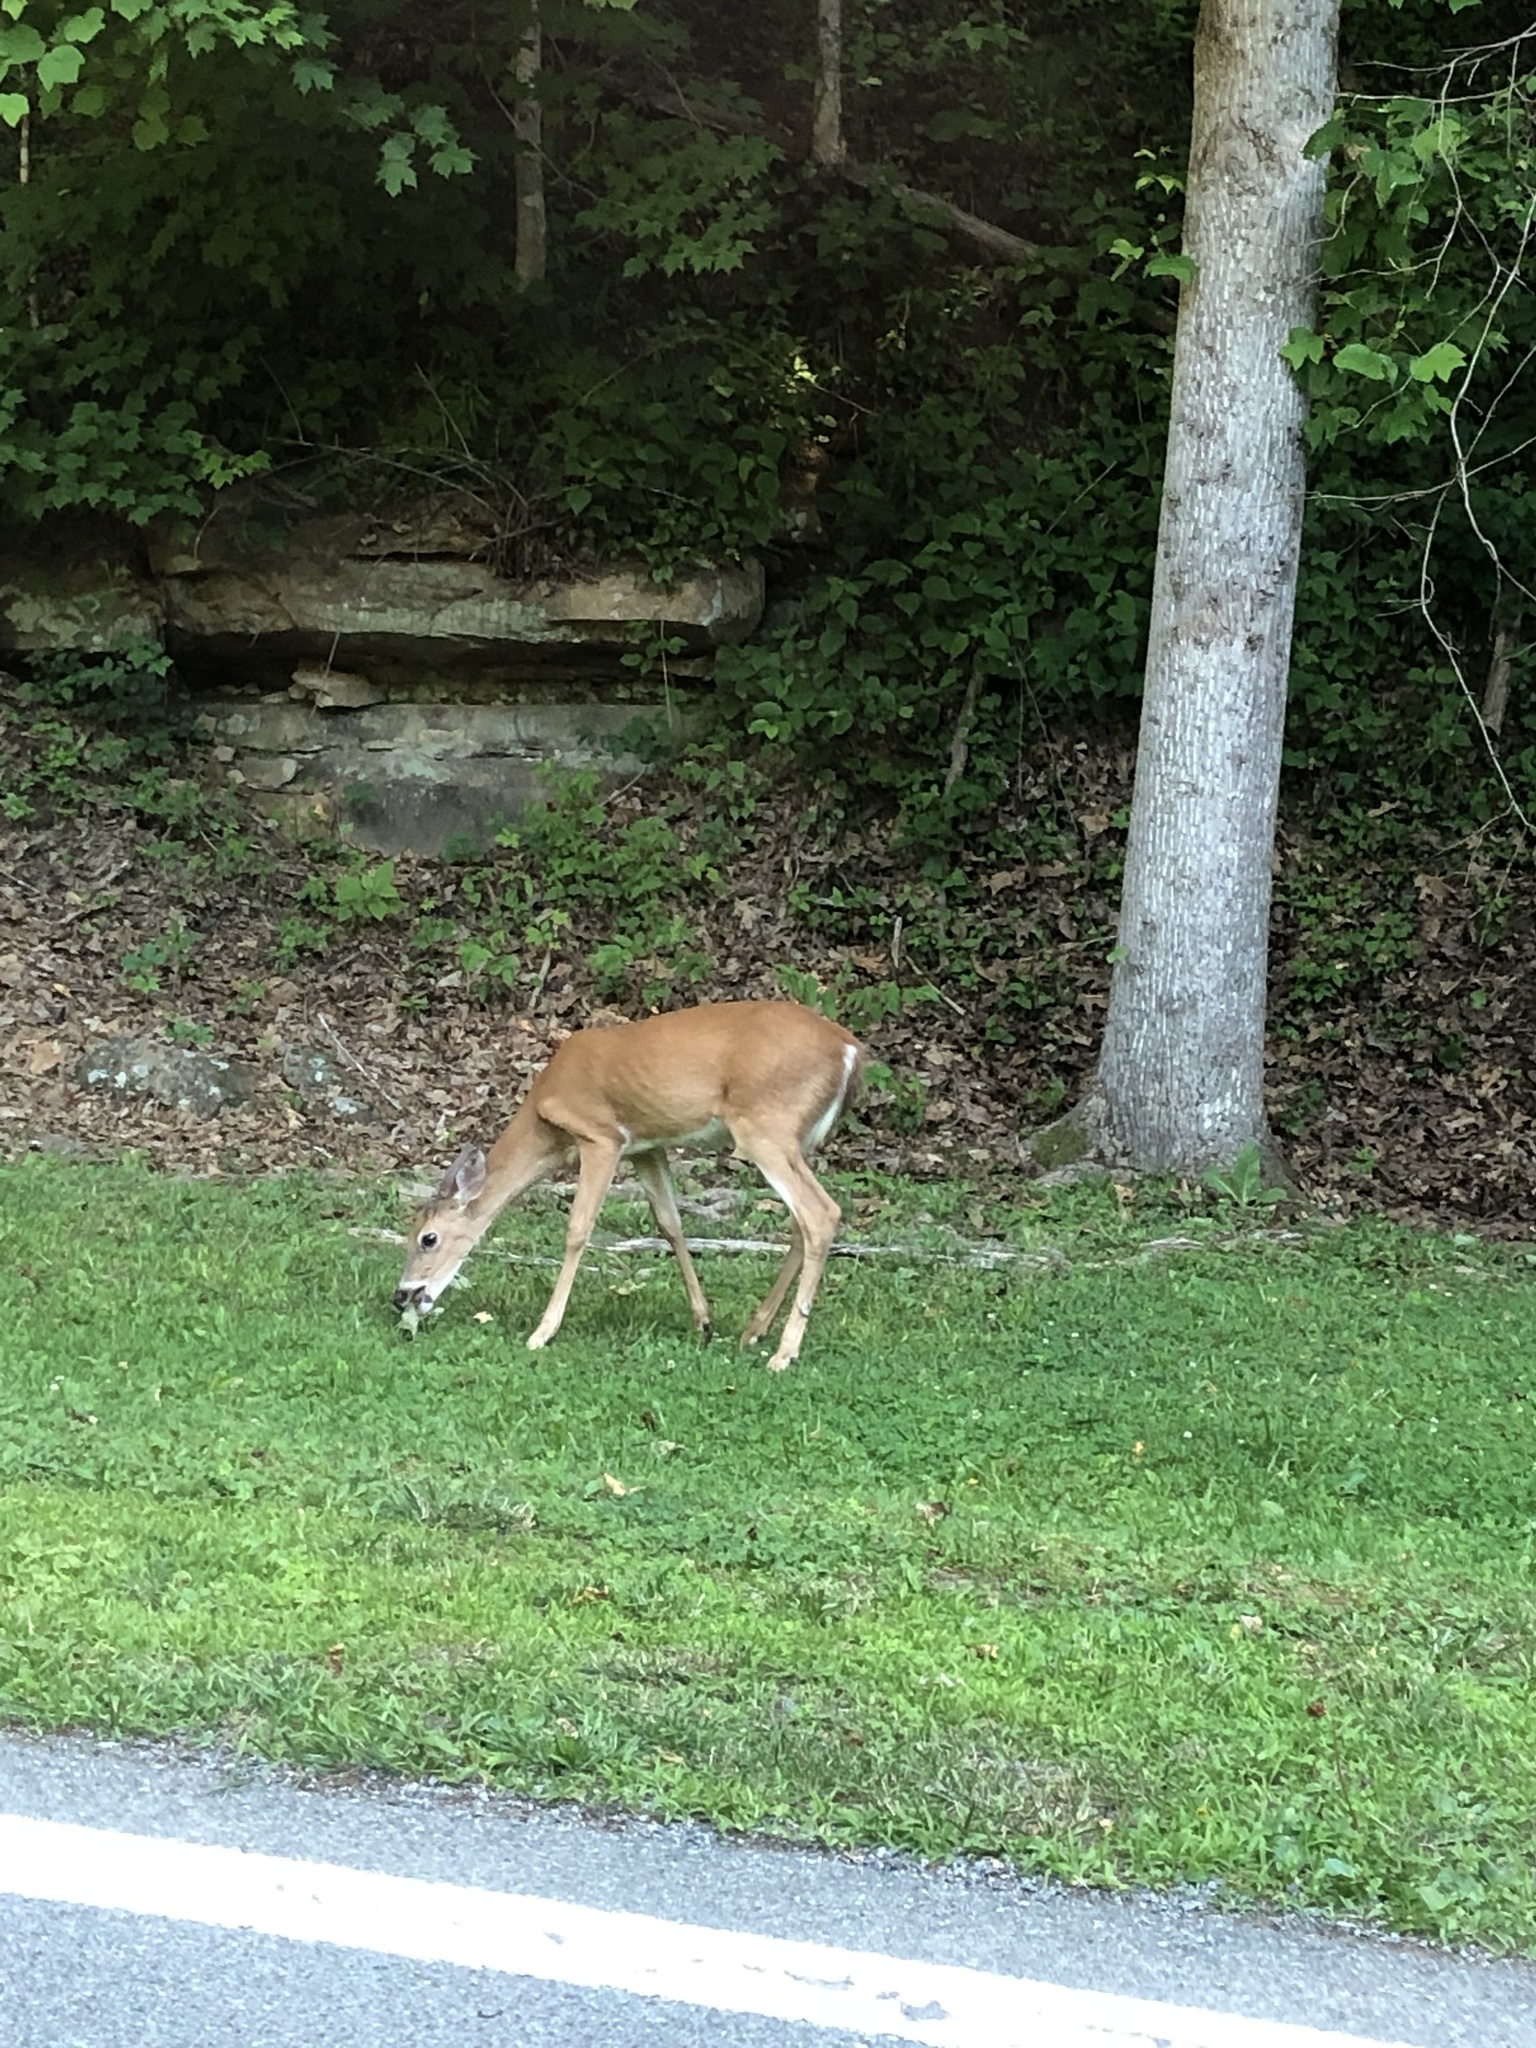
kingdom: Animalia
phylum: Chordata
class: Mammalia
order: Artiodactyla
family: Cervidae
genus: Odocoileus
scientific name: Odocoileus virginianus
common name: White-tailed deer
